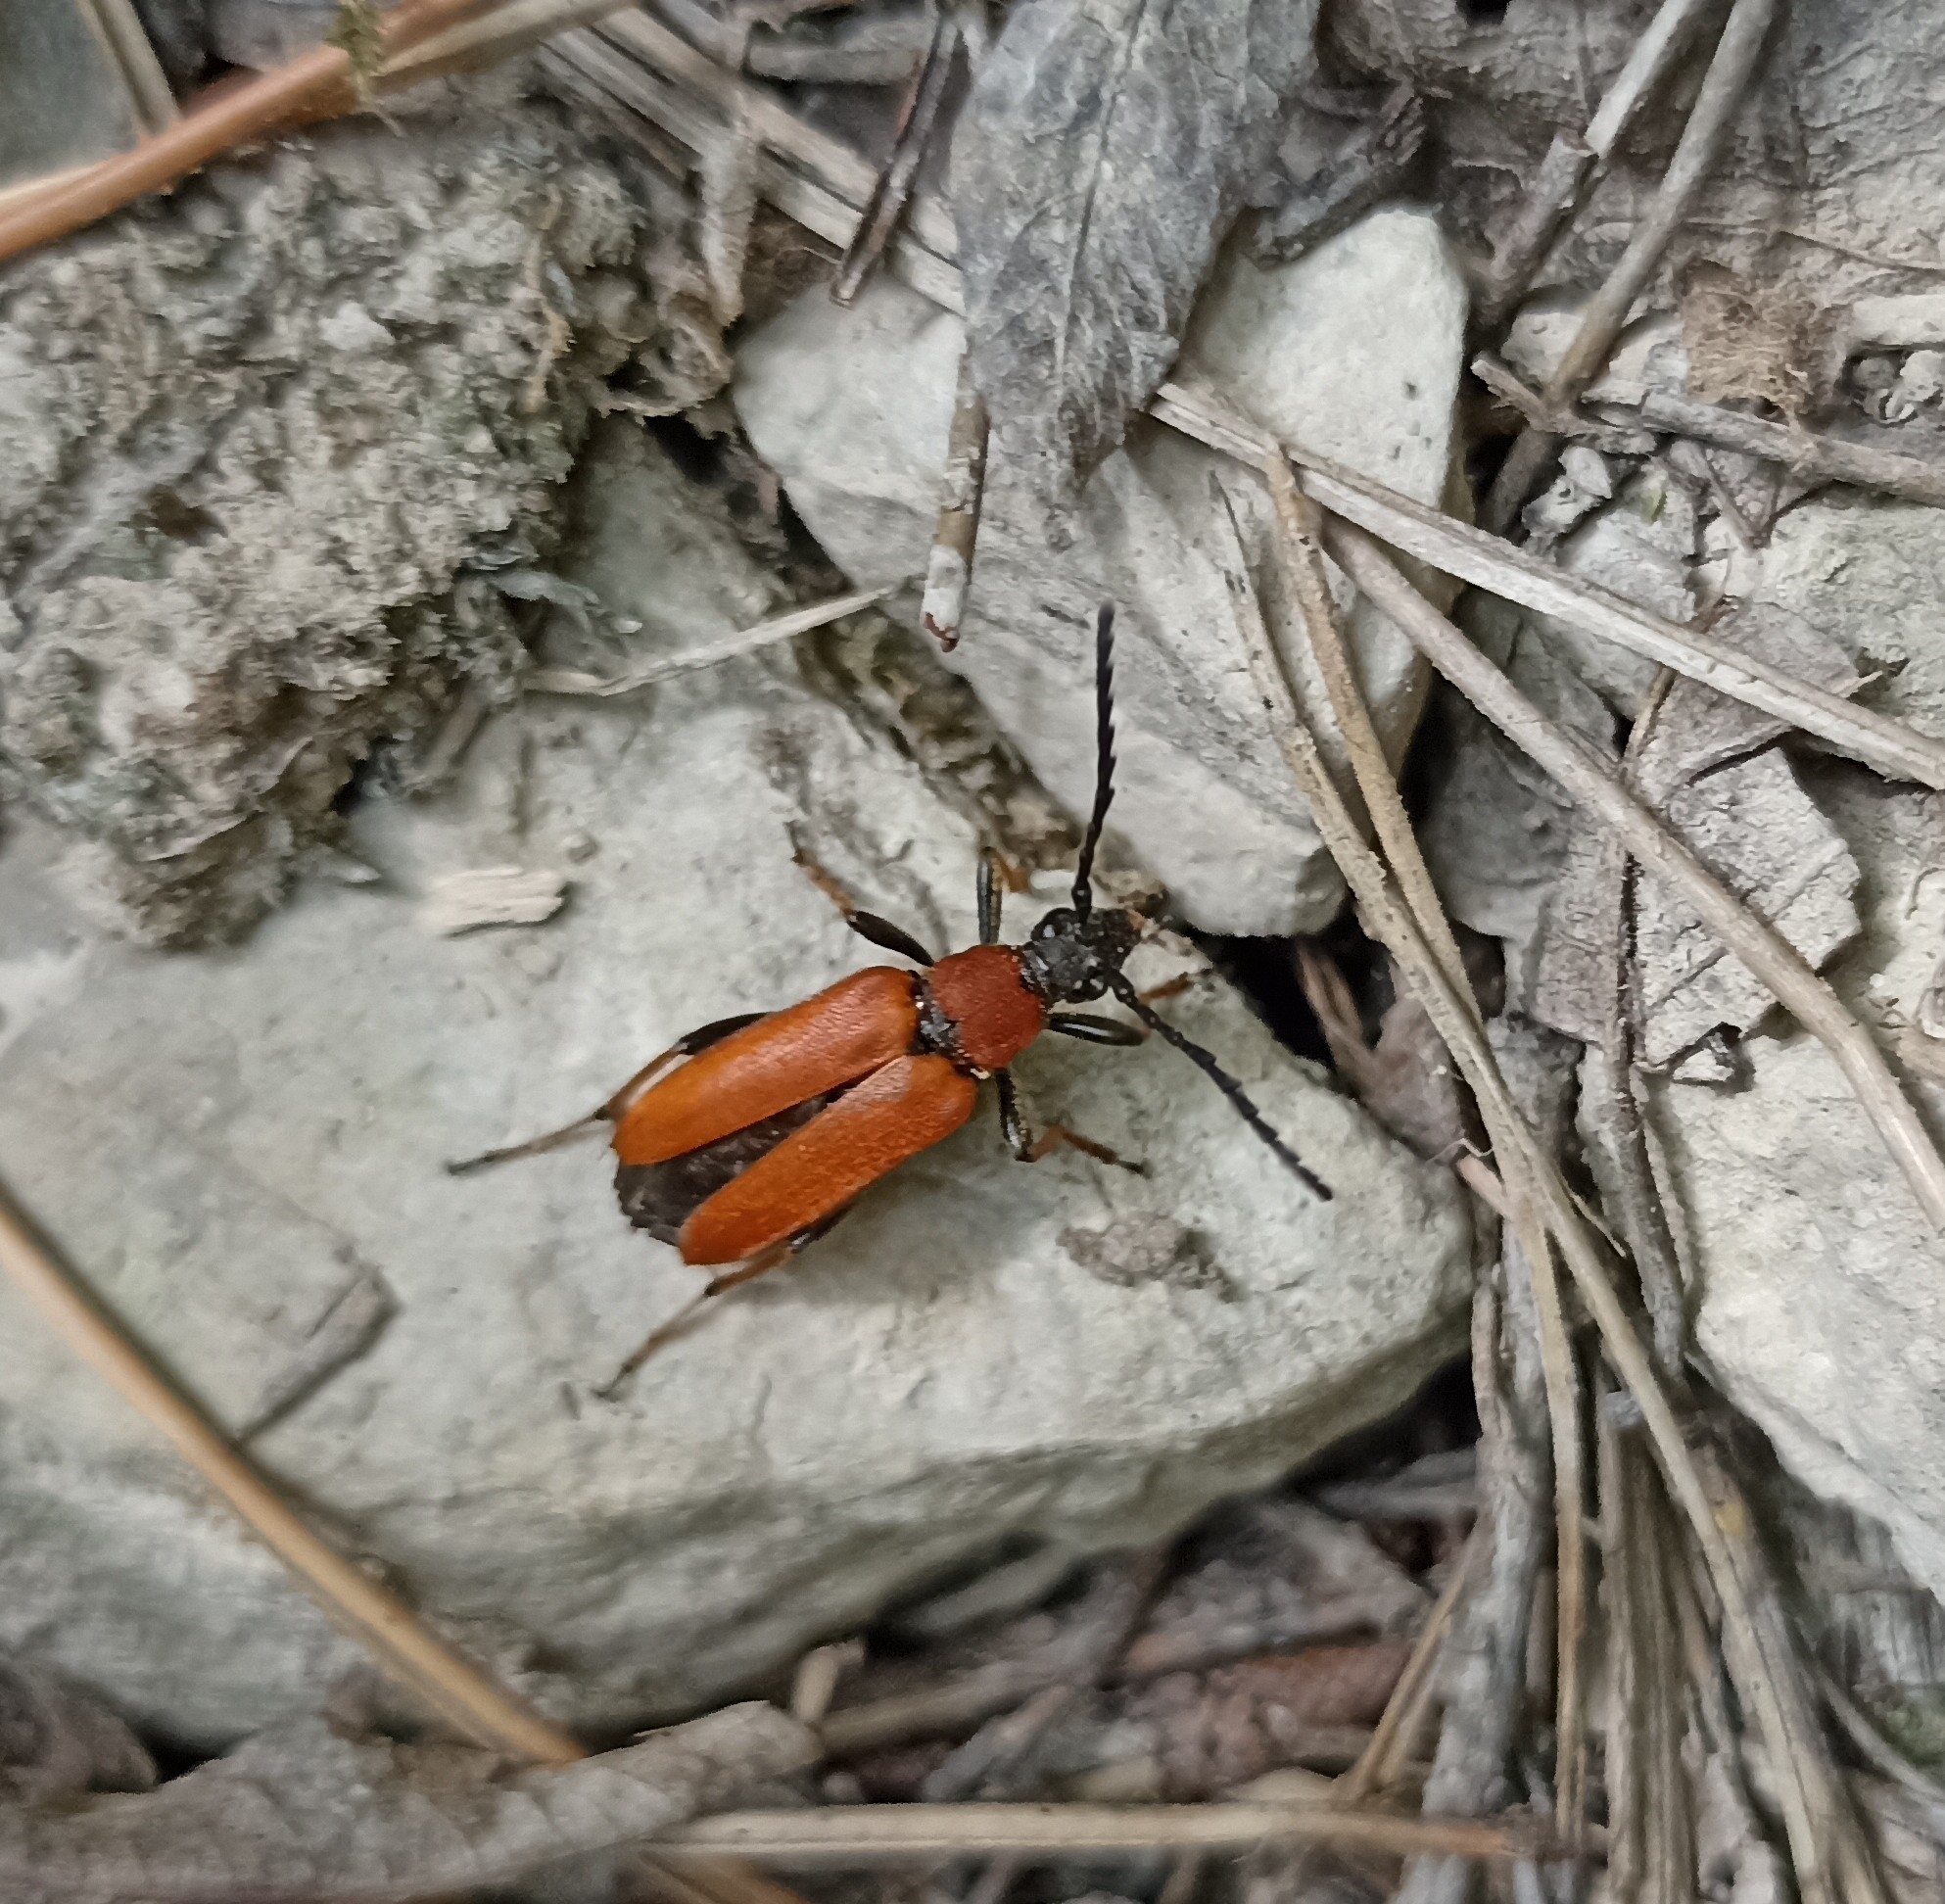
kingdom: Animalia
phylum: Arthropoda
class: Insecta
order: Coleoptera
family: Cerambycidae
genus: Stictoleptura
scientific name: Stictoleptura rubra
